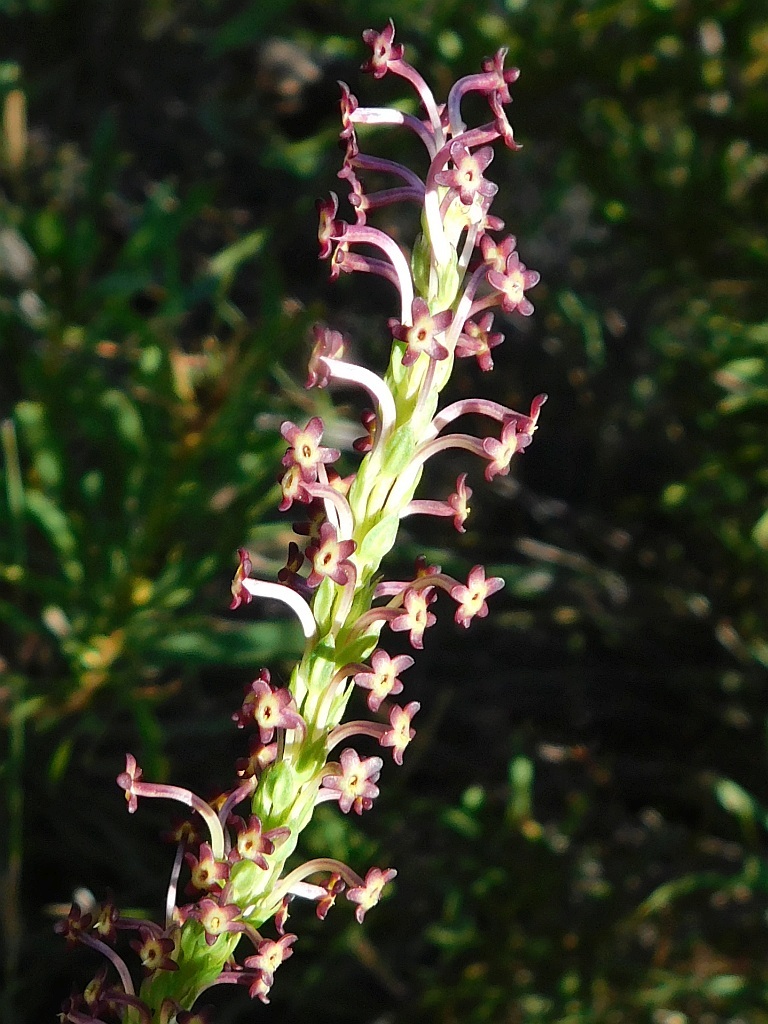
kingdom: Plantae
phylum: Tracheophyta
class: Magnoliopsida
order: Lamiales
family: Scrophulariaceae
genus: Microdon
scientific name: Microdon dubius
